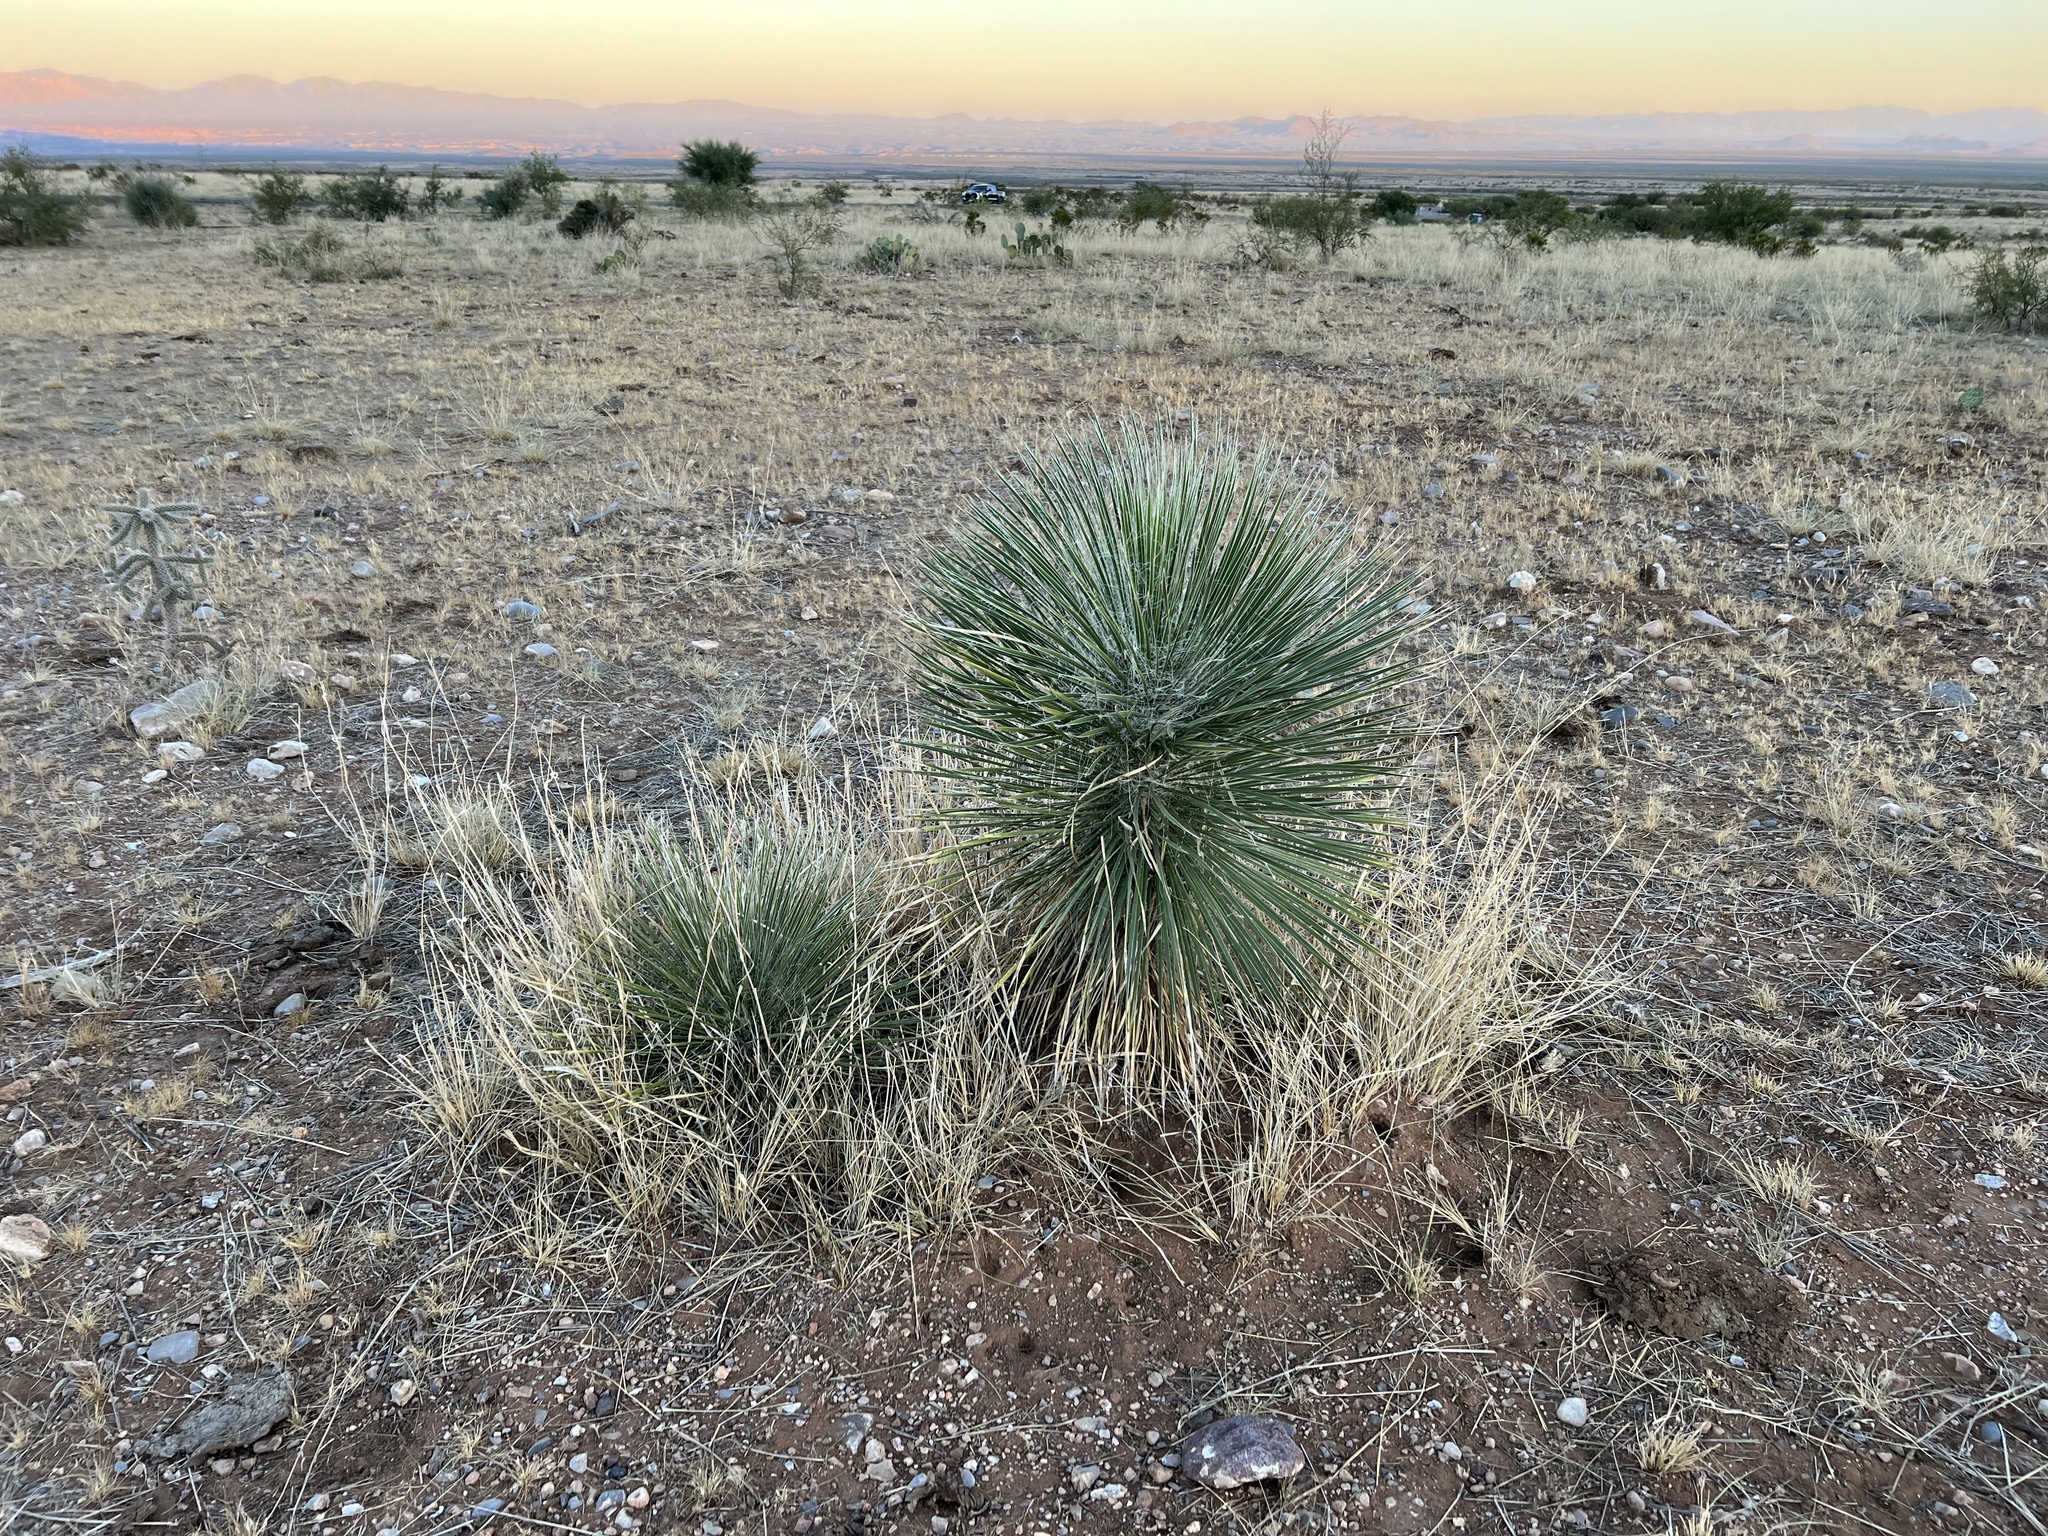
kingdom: Plantae
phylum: Tracheophyta
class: Liliopsida
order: Asparagales
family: Asparagaceae
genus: Yucca
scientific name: Yucca elata
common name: Palmella
